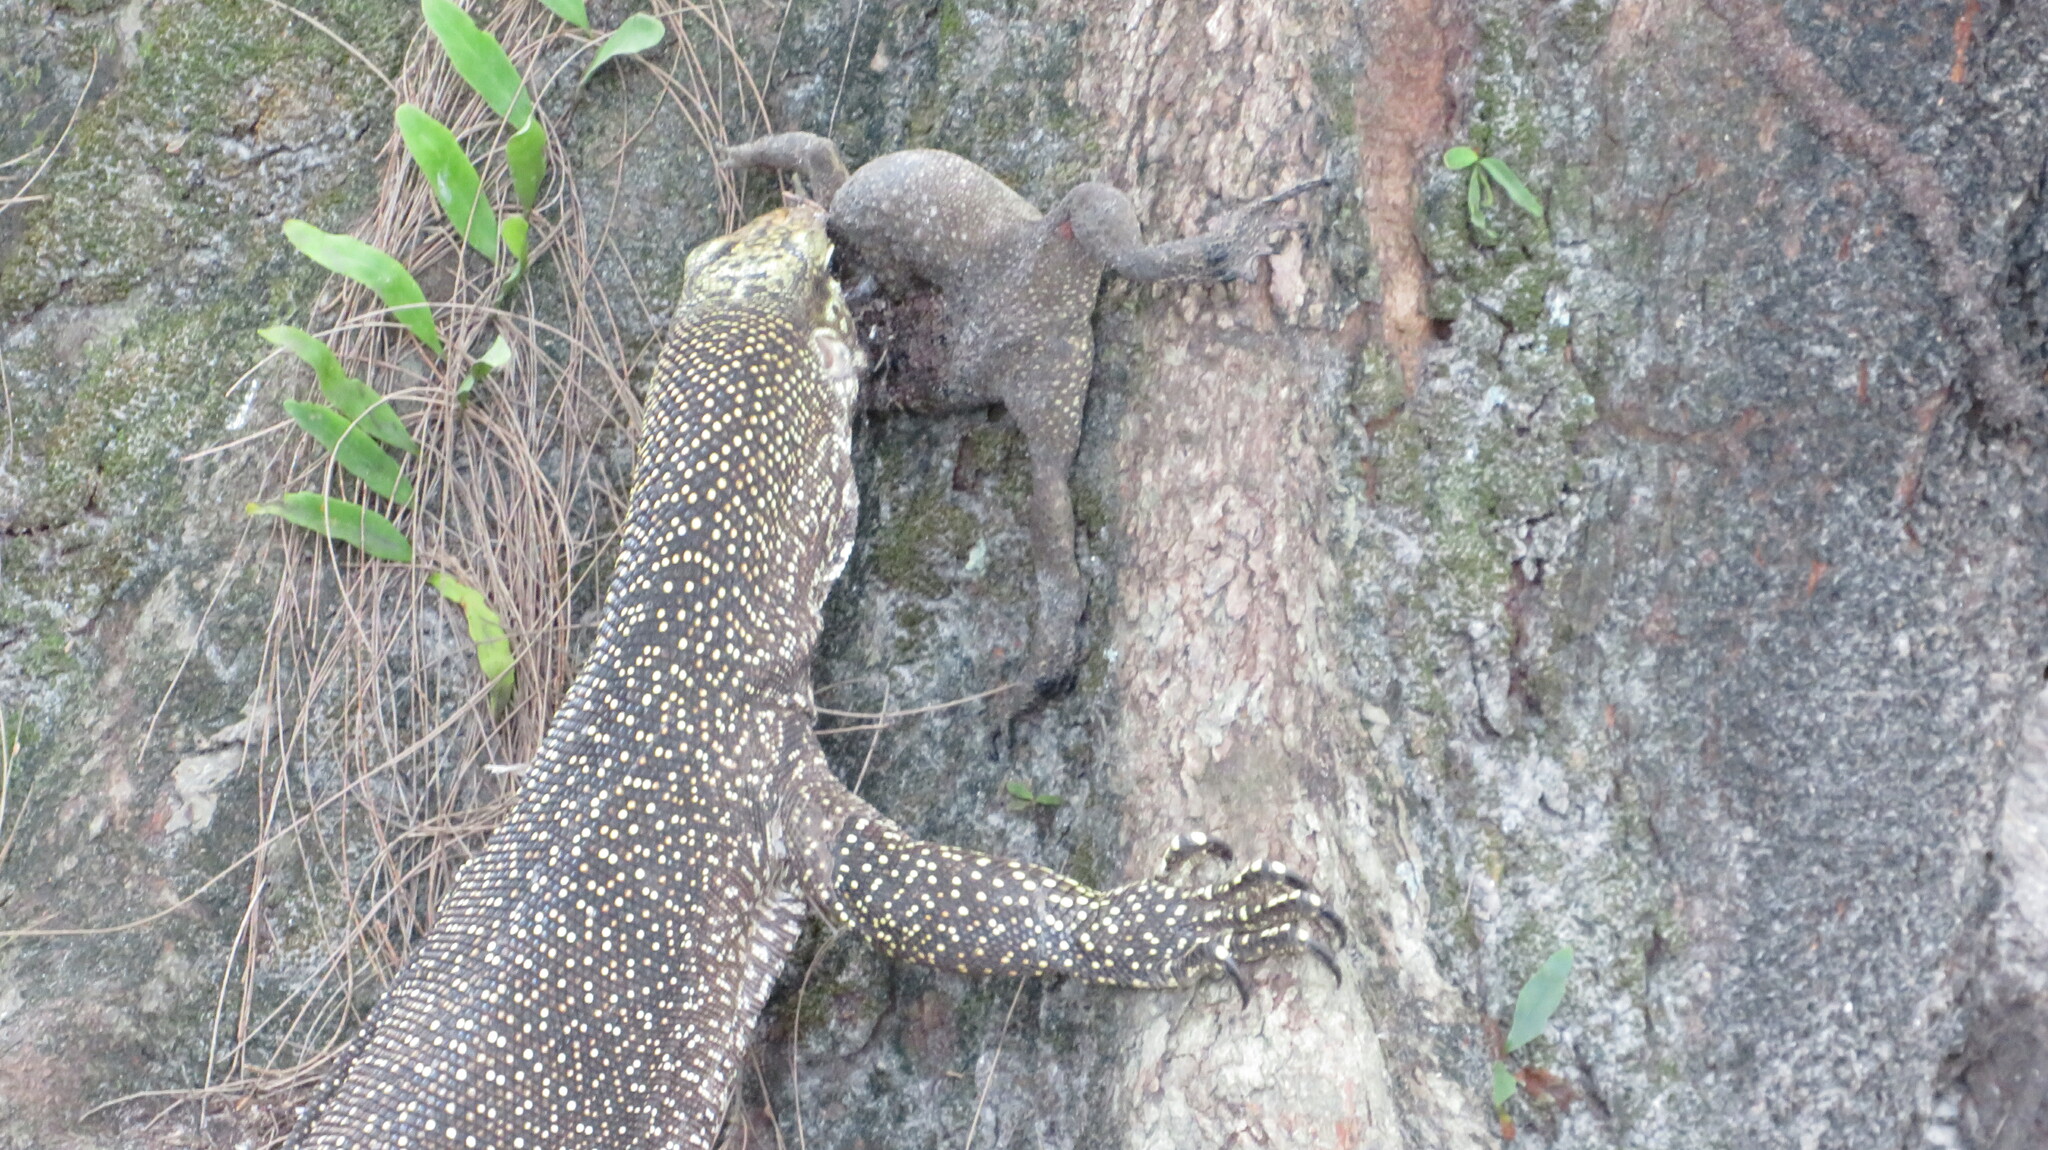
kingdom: Animalia
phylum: Chordata
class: Squamata
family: Varanidae
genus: Varanus
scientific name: Varanus nebulosus
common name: Clouded monitor
